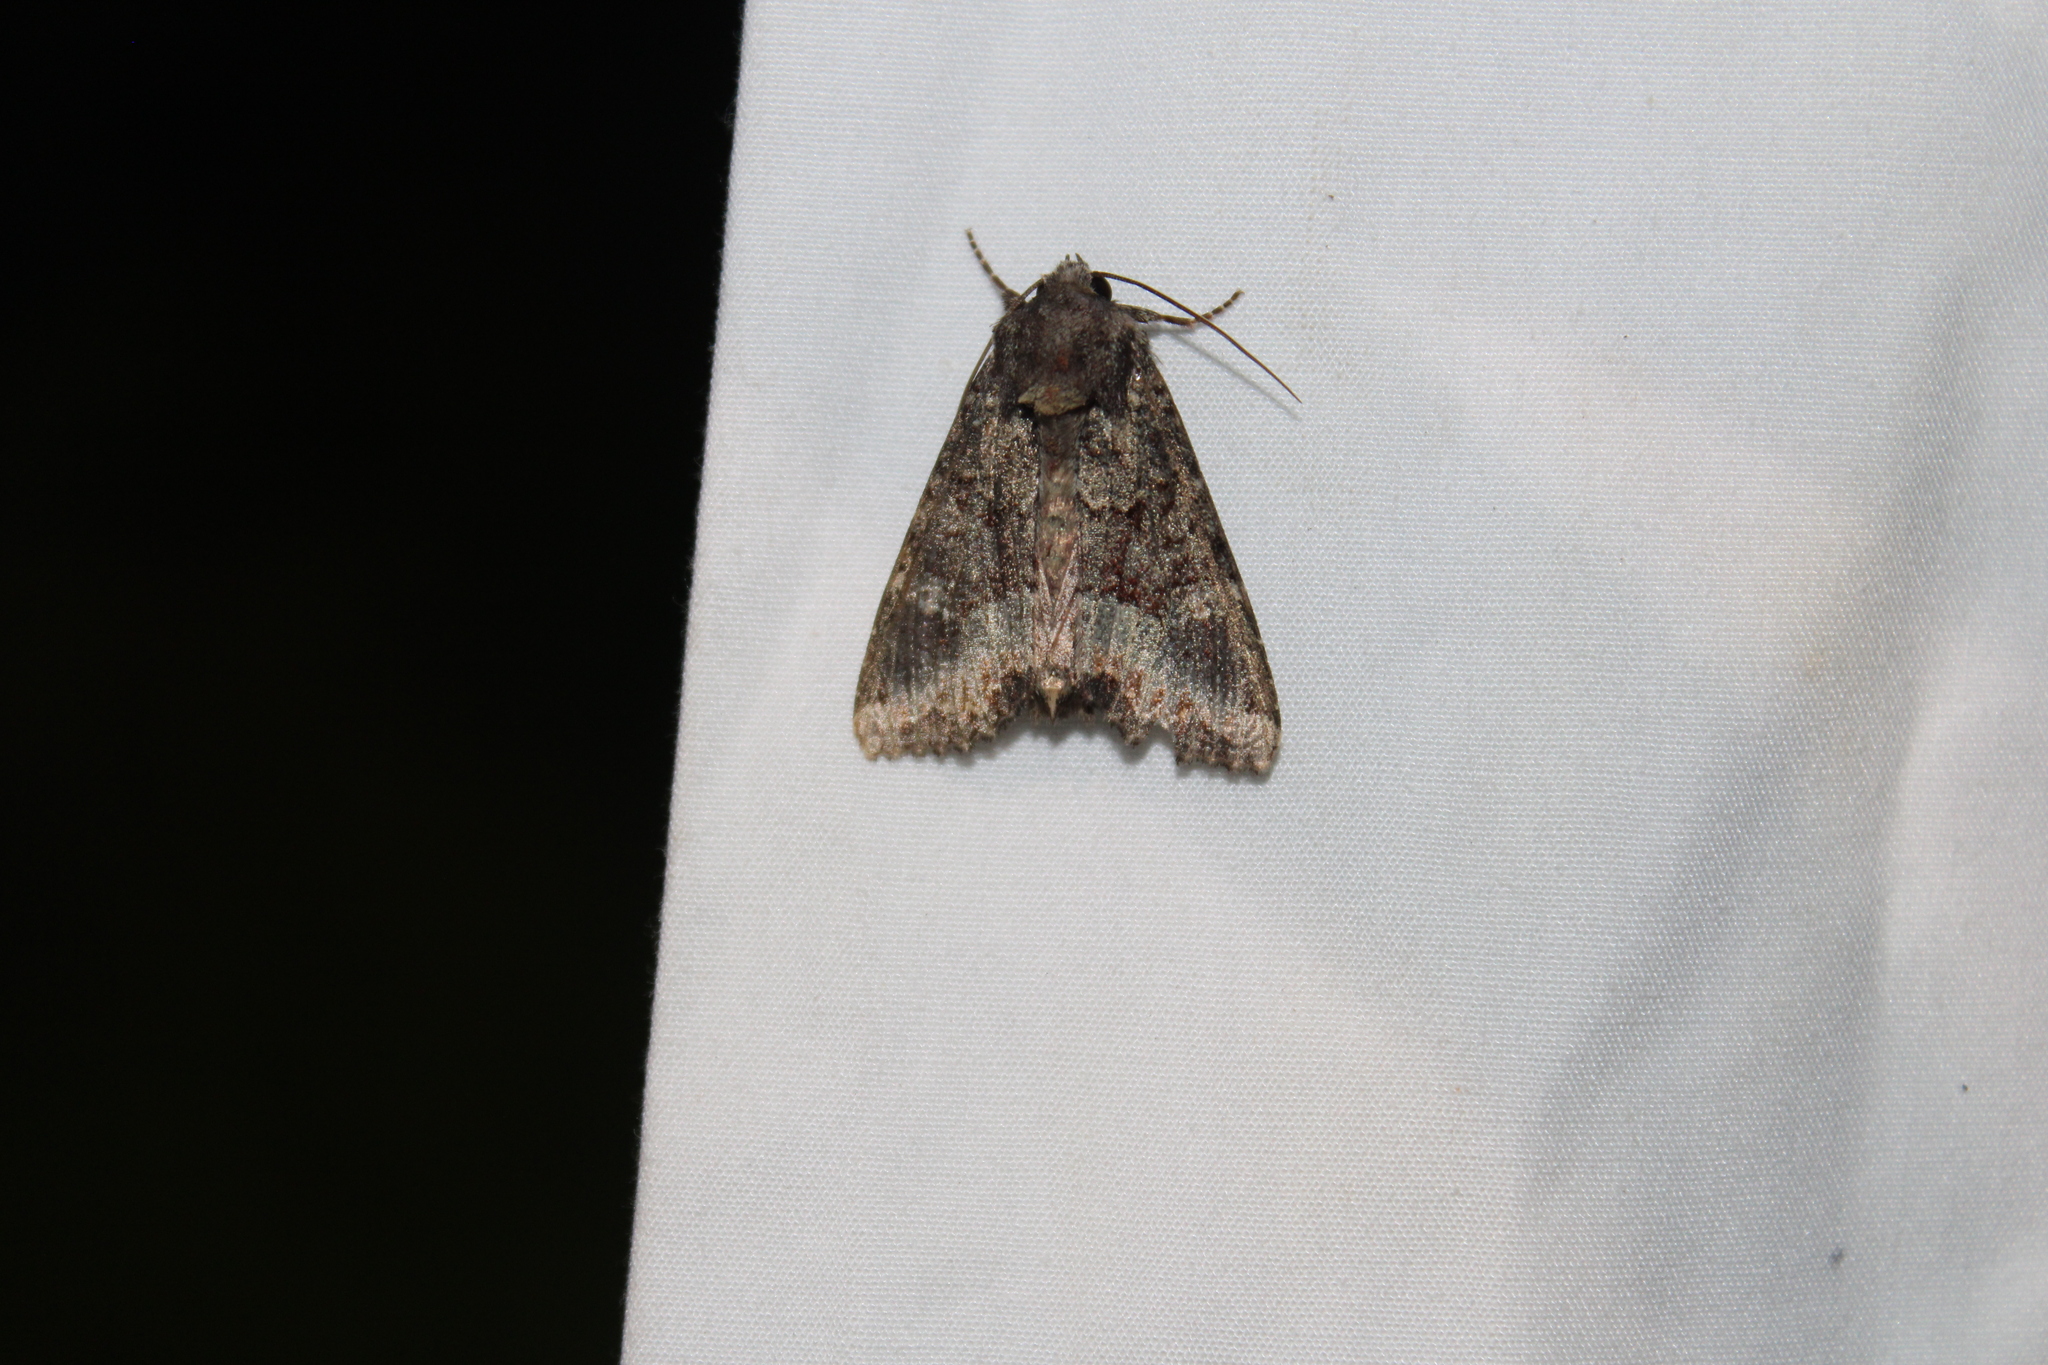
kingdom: Animalia
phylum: Arthropoda
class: Insecta
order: Lepidoptera
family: Noctuidae
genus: Apamea
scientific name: Apamea amputatrix
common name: Yellow-headed cutworm moth
